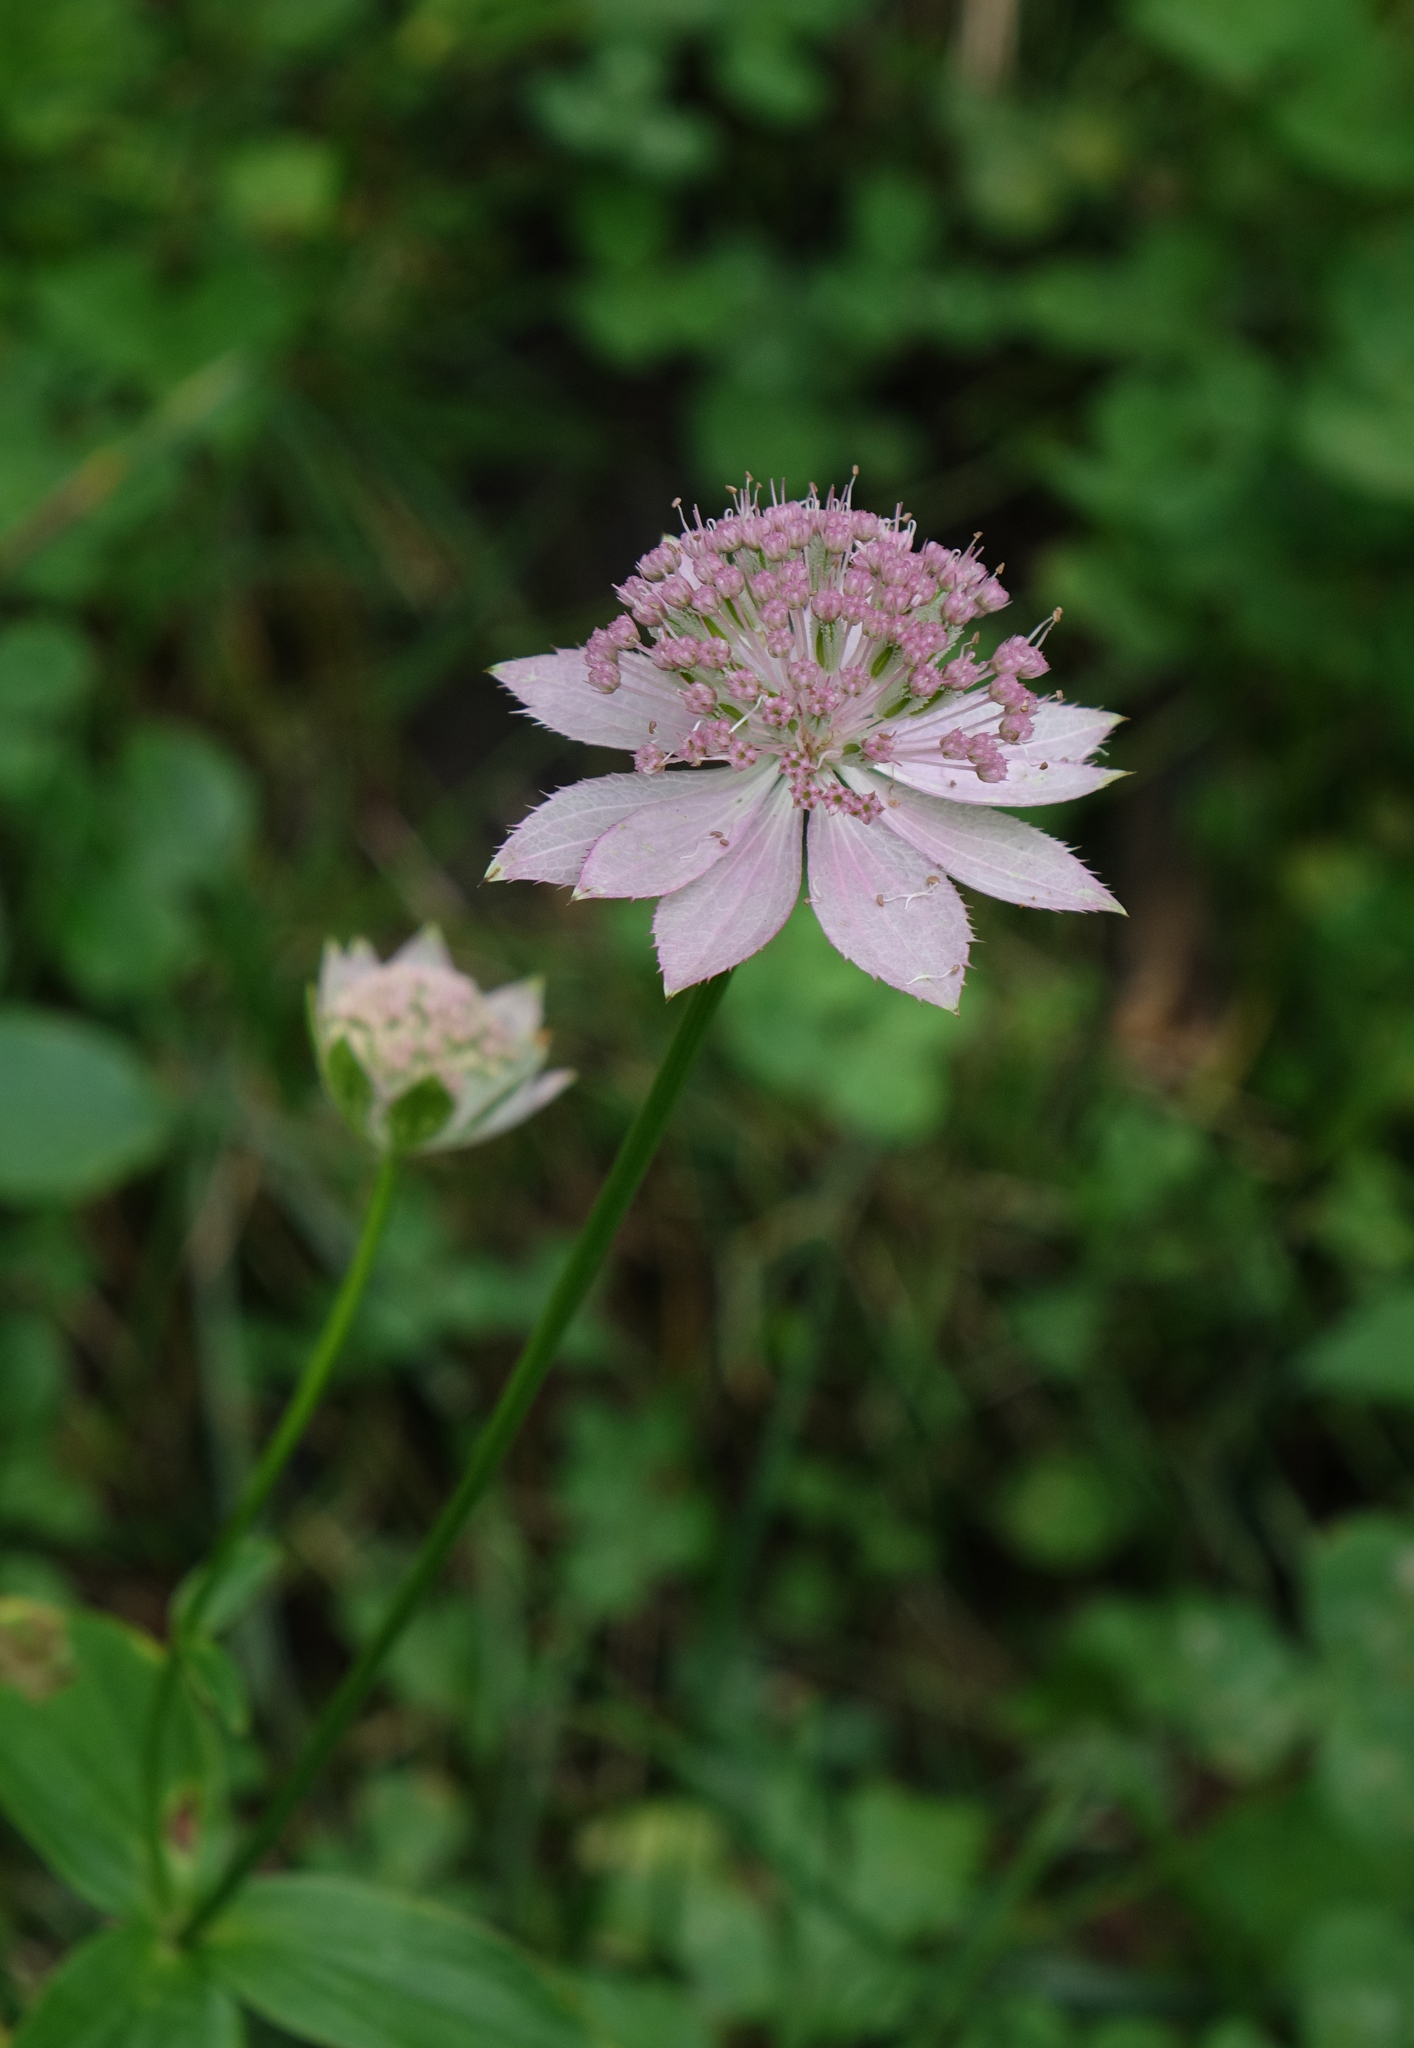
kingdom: Plantae
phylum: Tracheophyta
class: Magnoliopsida
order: Apiales
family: Apiaceae
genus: Astrantia
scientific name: Astrantia maxima
